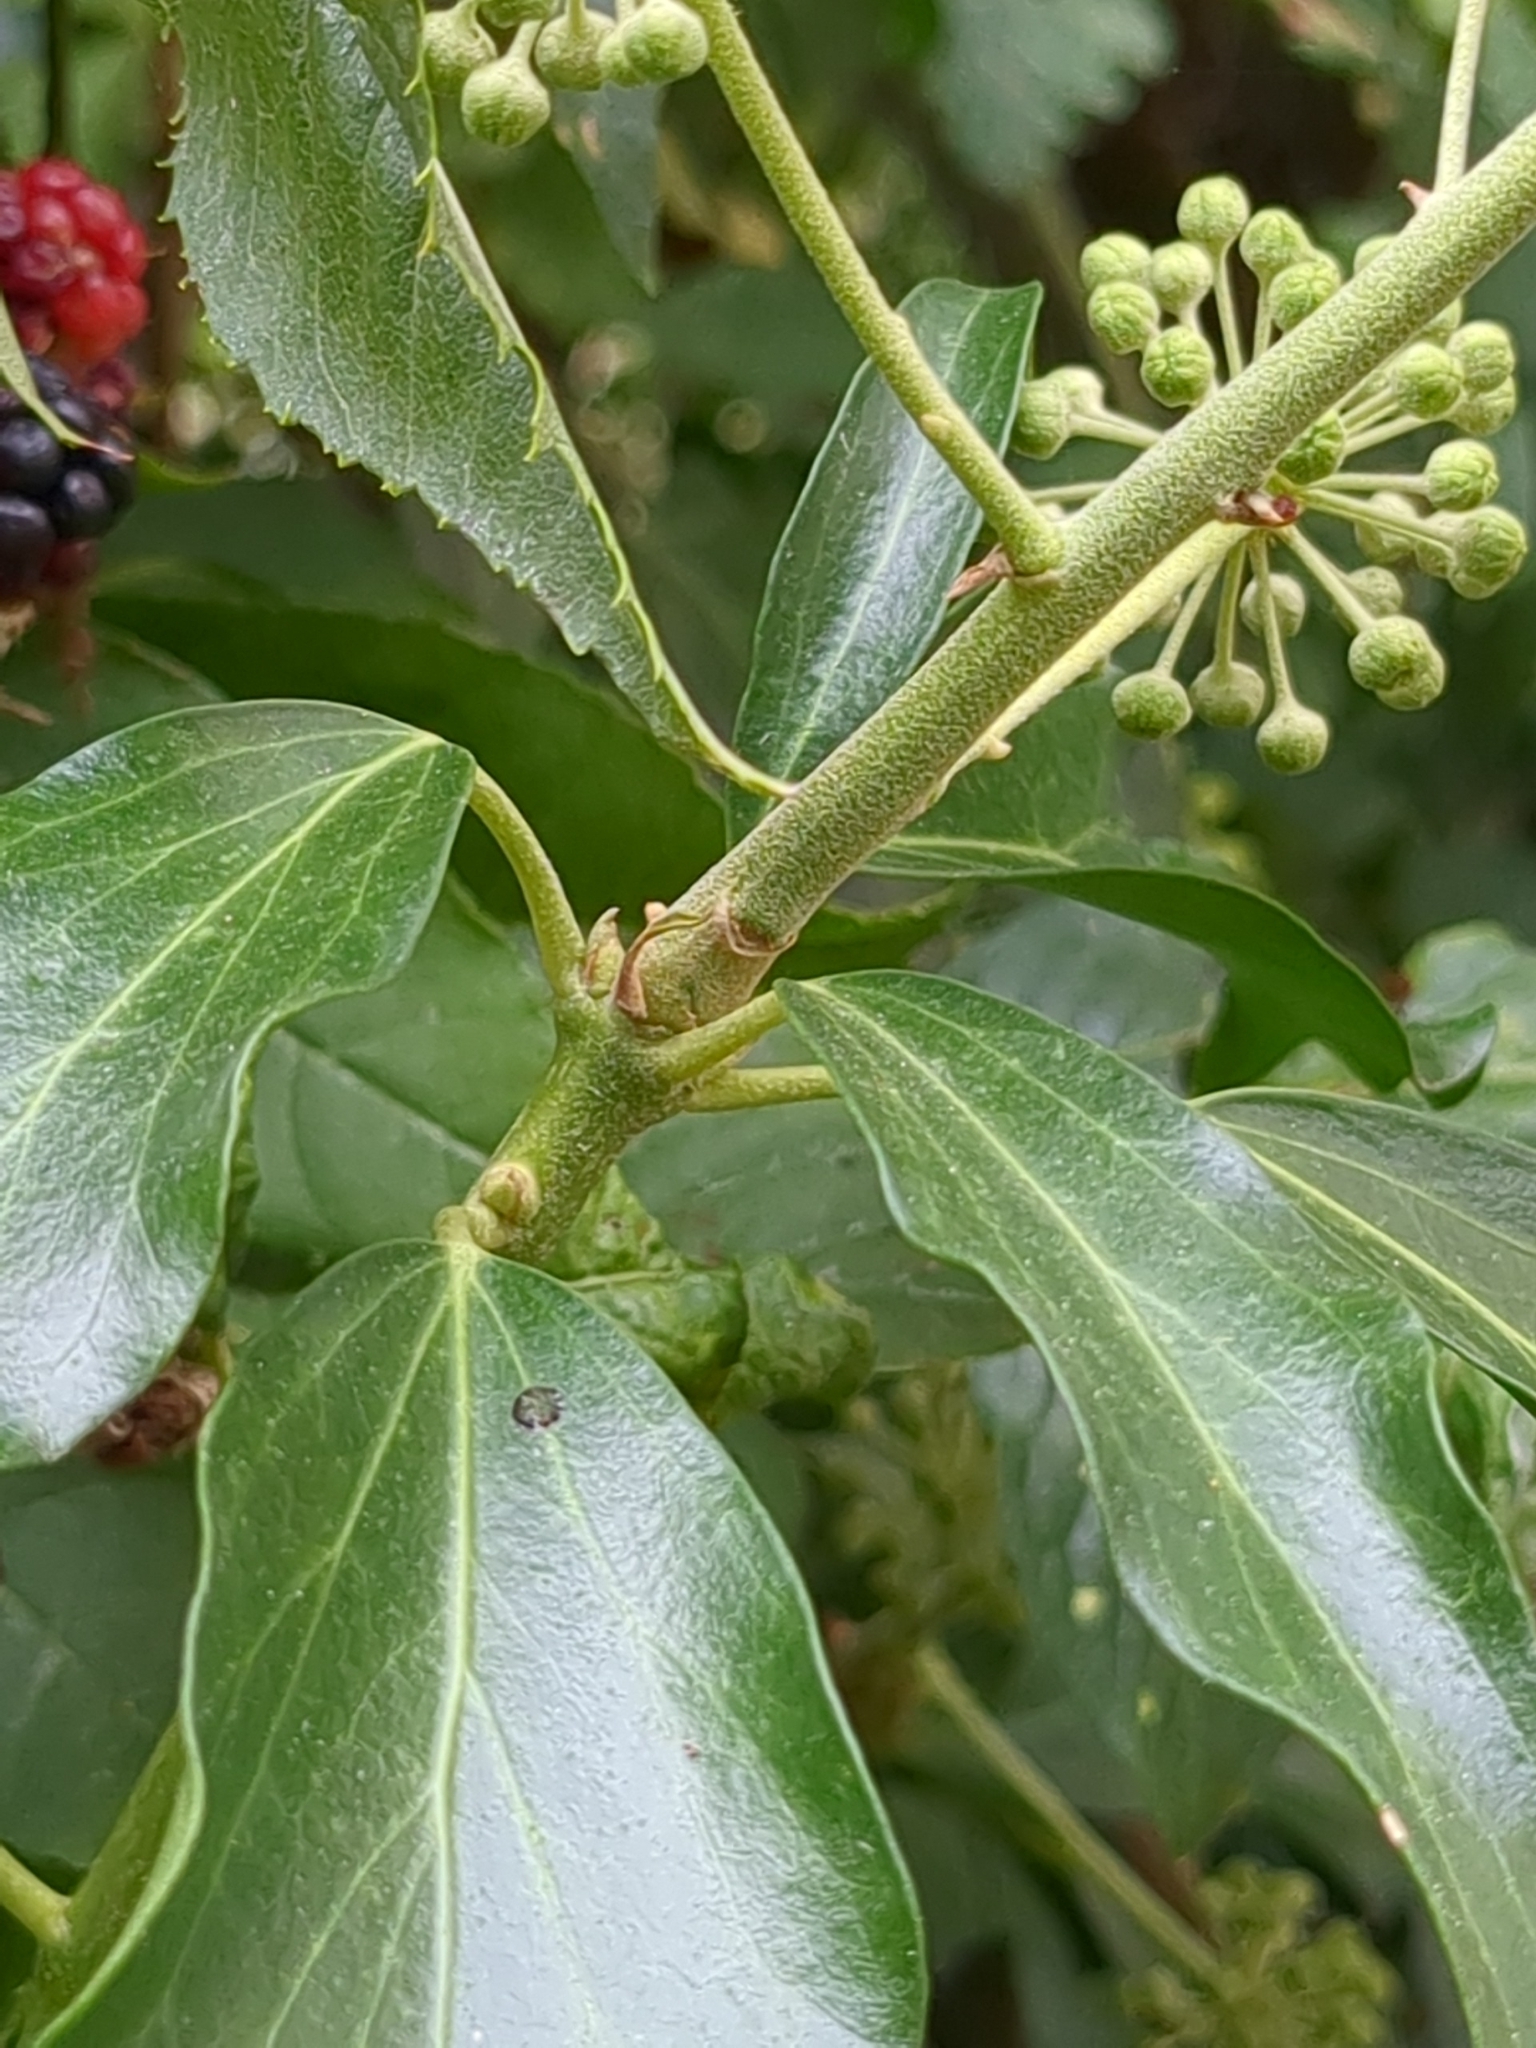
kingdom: Plantae
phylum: Tracheophyta
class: Magnoliopsida
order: Apiales
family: Araliaceae
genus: Hedera
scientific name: Hedera helix
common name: Ivy
